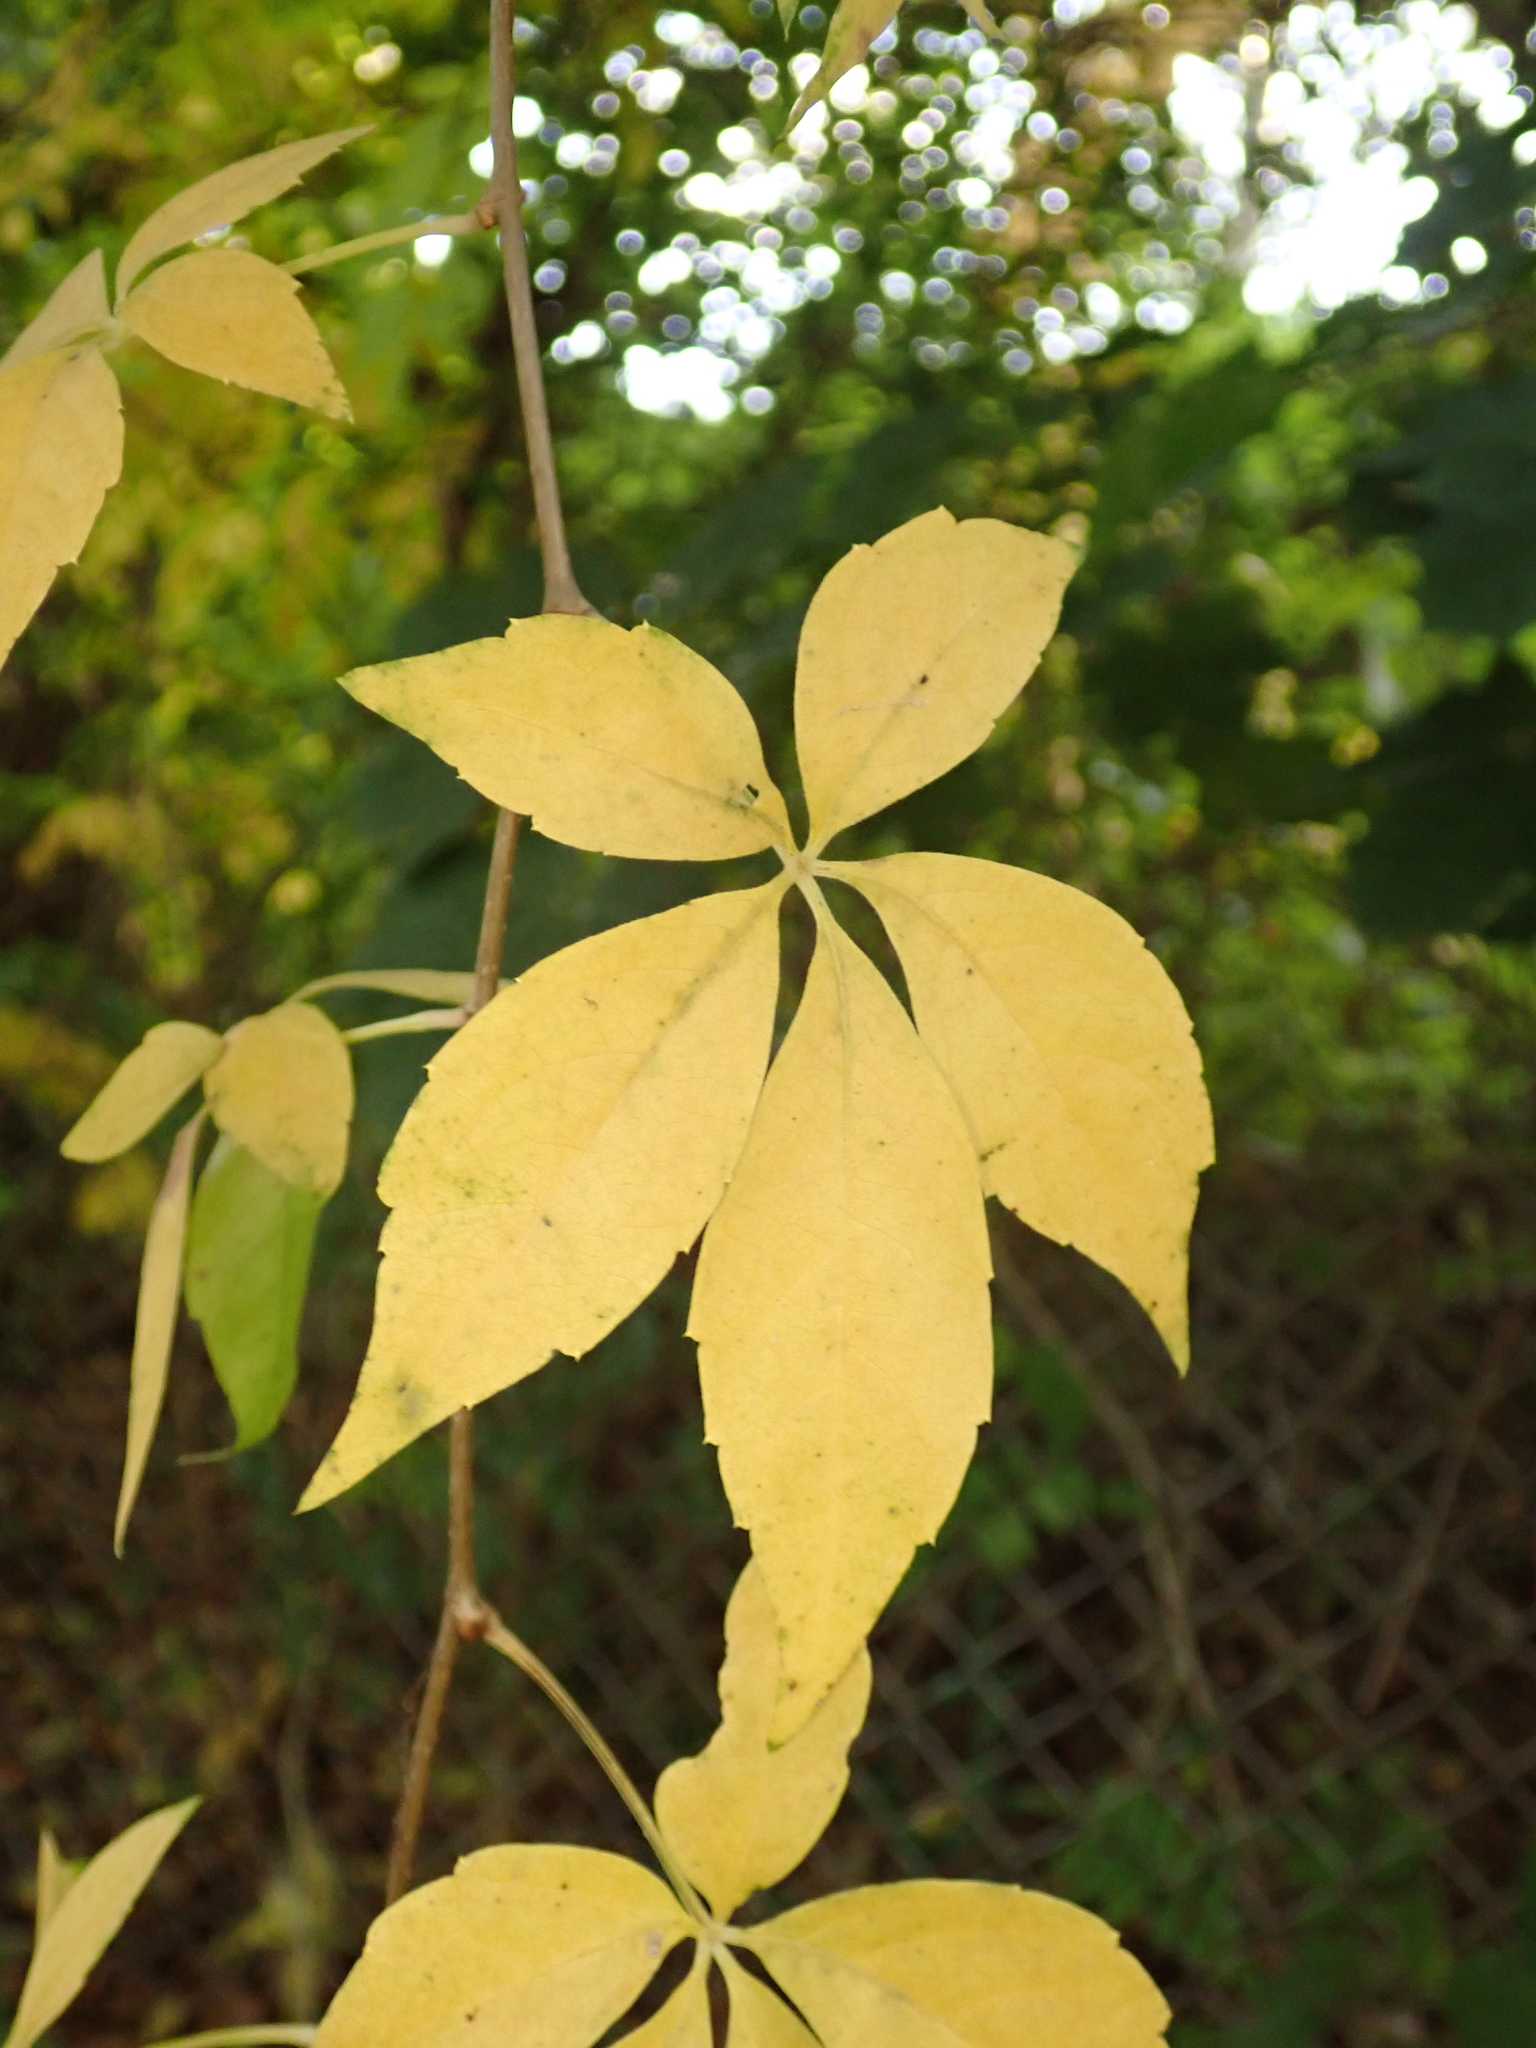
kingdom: Plantae
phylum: Tracheophyta
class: Magnoliopsida
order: Vitales
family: Vitaceae
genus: Parthenocissus
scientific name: Parthenocissus quinquefolia
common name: Virginia-creeper
